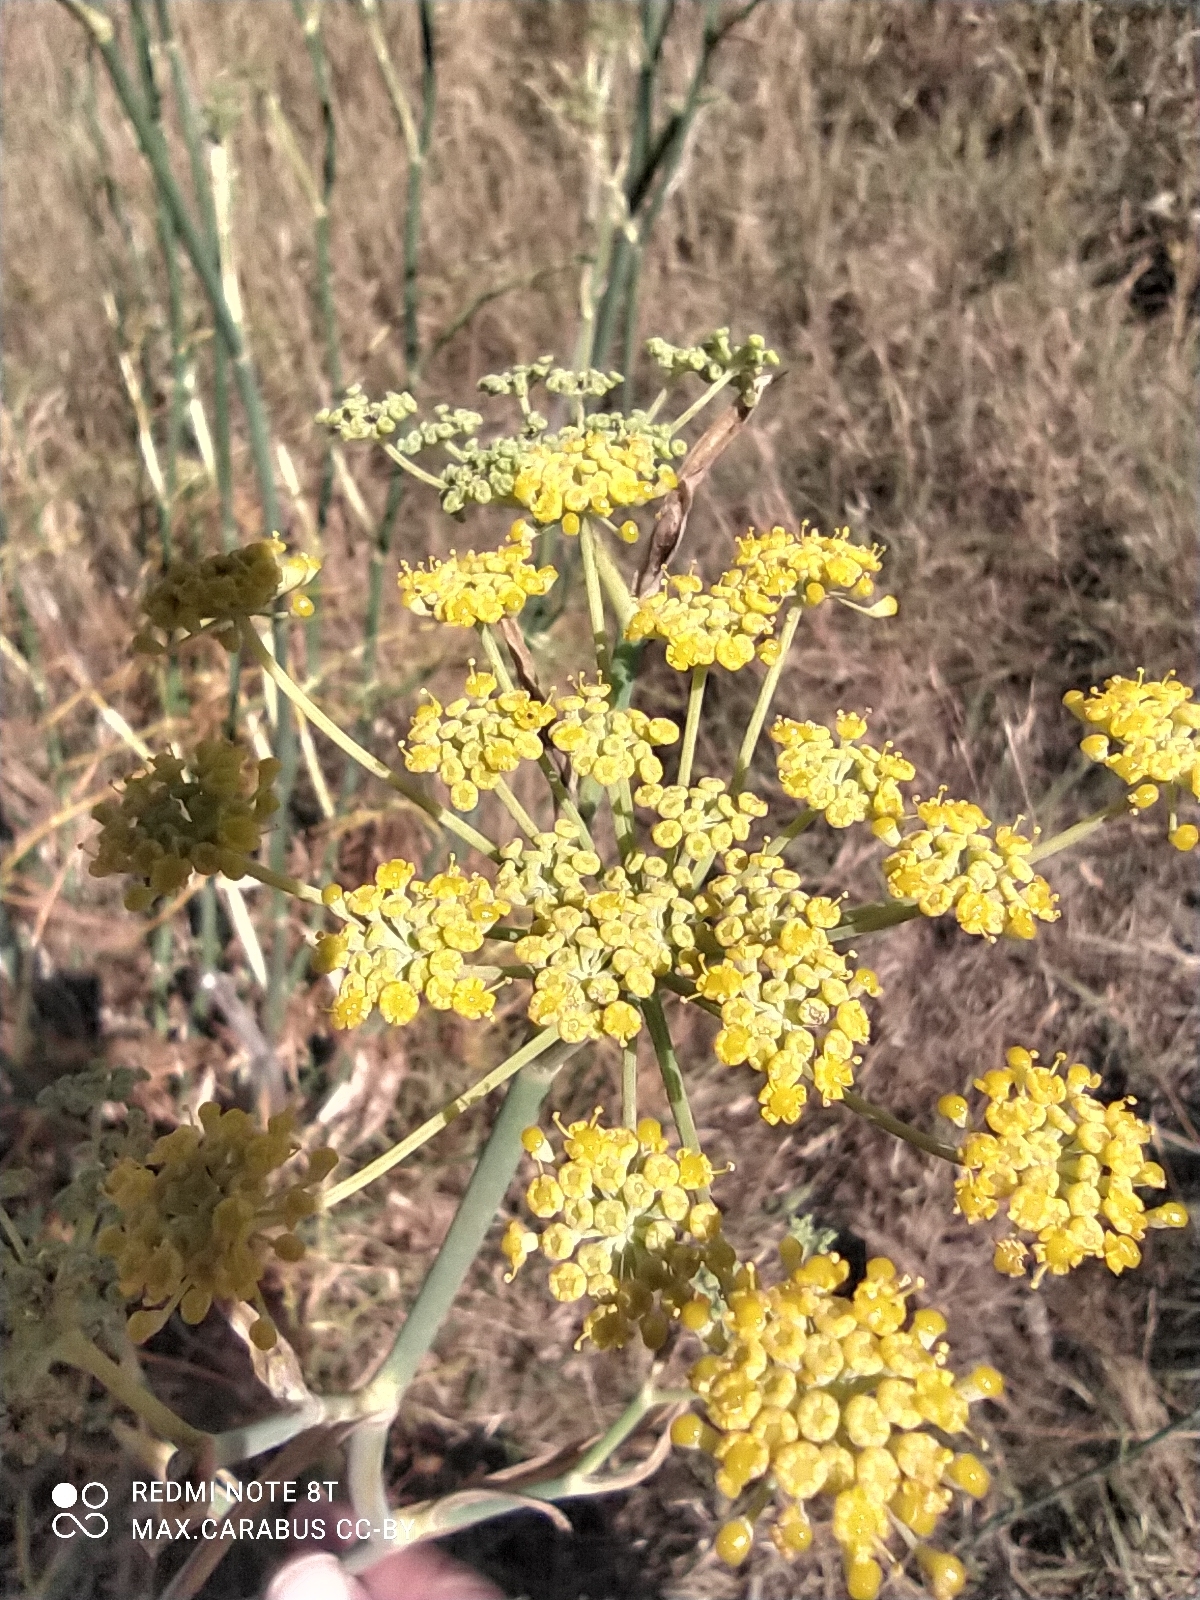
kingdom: Plantae
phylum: Tracheophyta
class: Magnoliopsida
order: Apiales
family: Apiaceae
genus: Foeniculum
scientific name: Foeniculum vulgare
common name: Fennel
